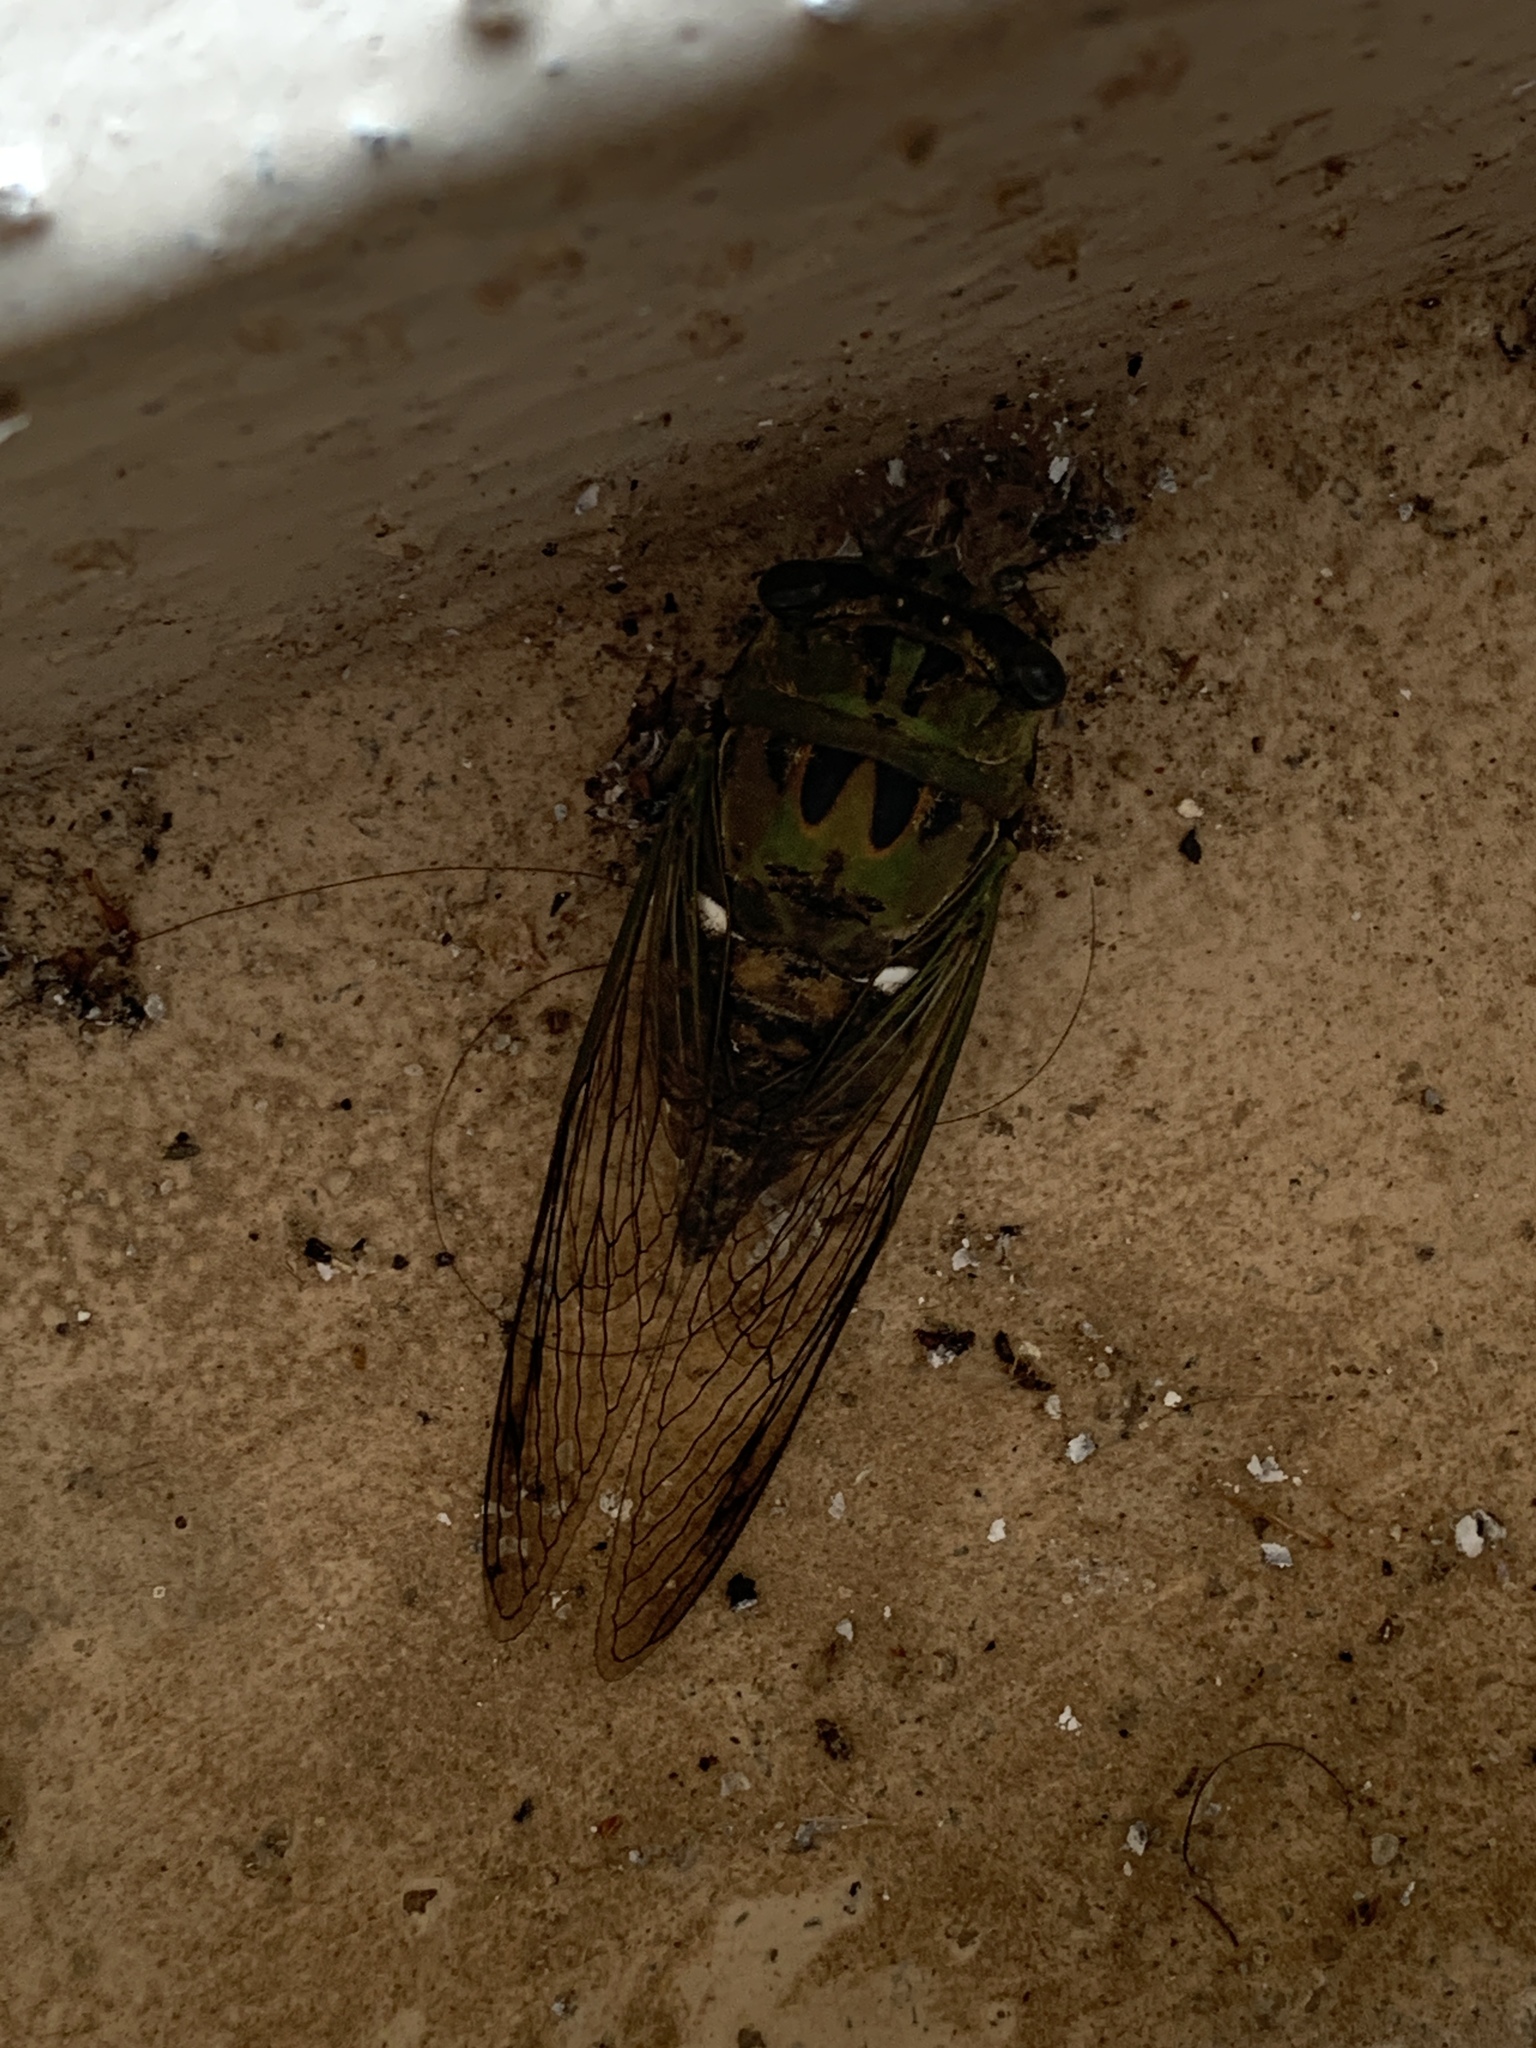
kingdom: Animalia
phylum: Arthropoda
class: Insecta
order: Hemiptera
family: Cicadidae
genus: Neotibicen
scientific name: Neotibicen pruinosus
